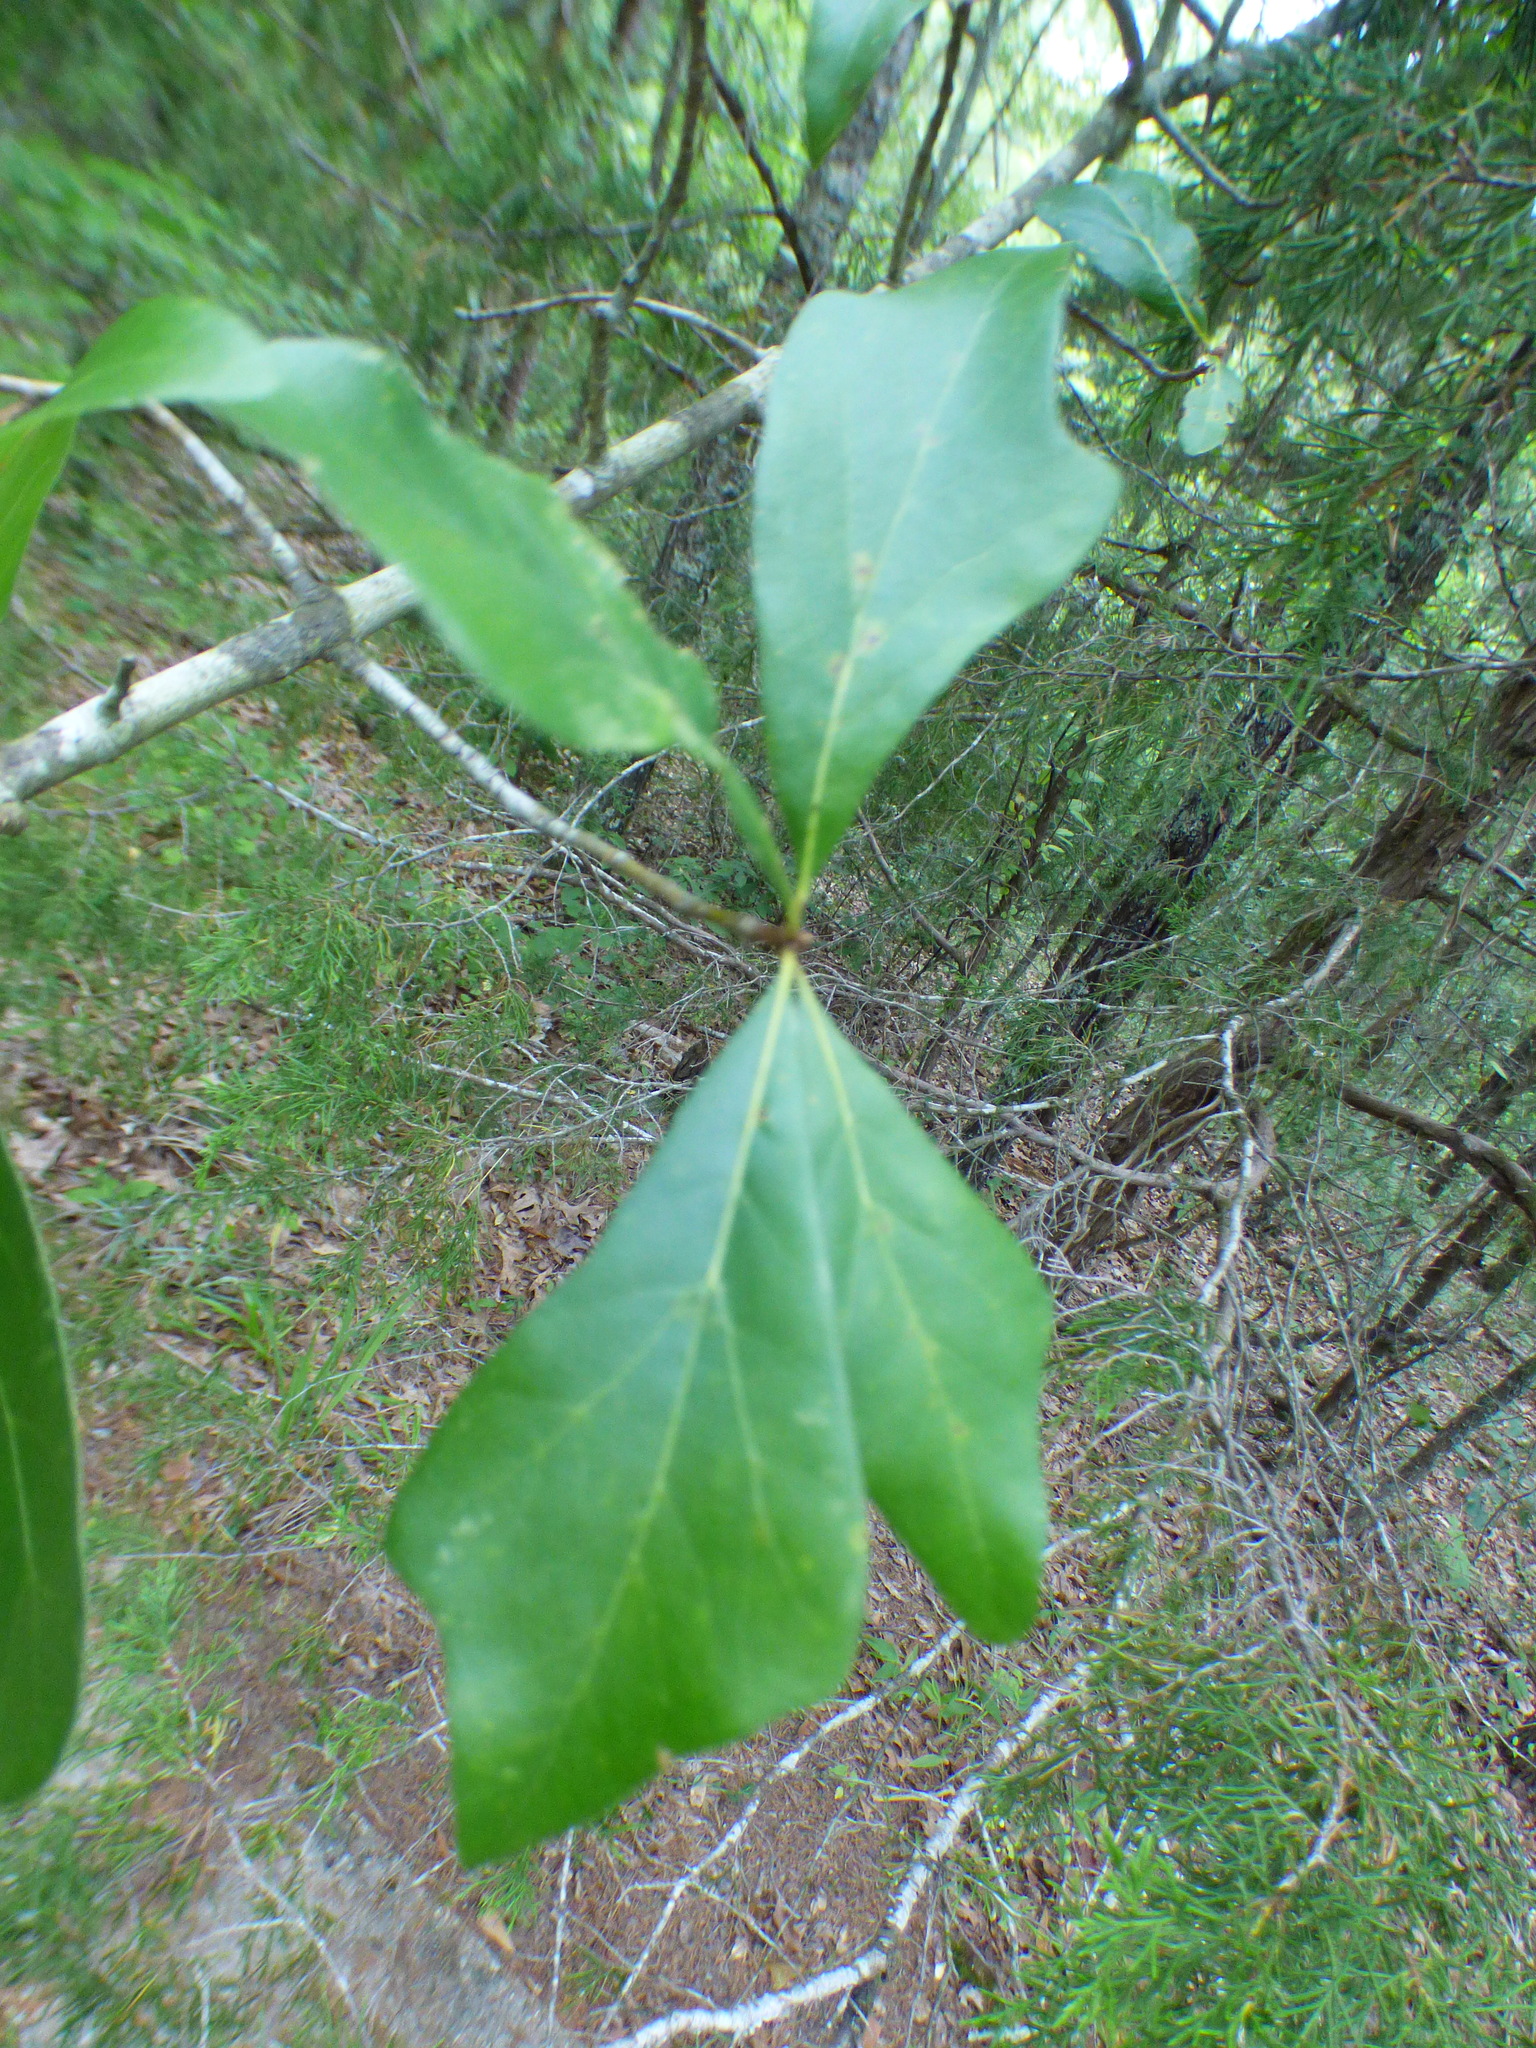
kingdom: Plantae
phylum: Tracheophyta
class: Magnoliopsida
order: Fagales
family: Fagaceae
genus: Quercus
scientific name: Quercus nigra
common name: Water oak
